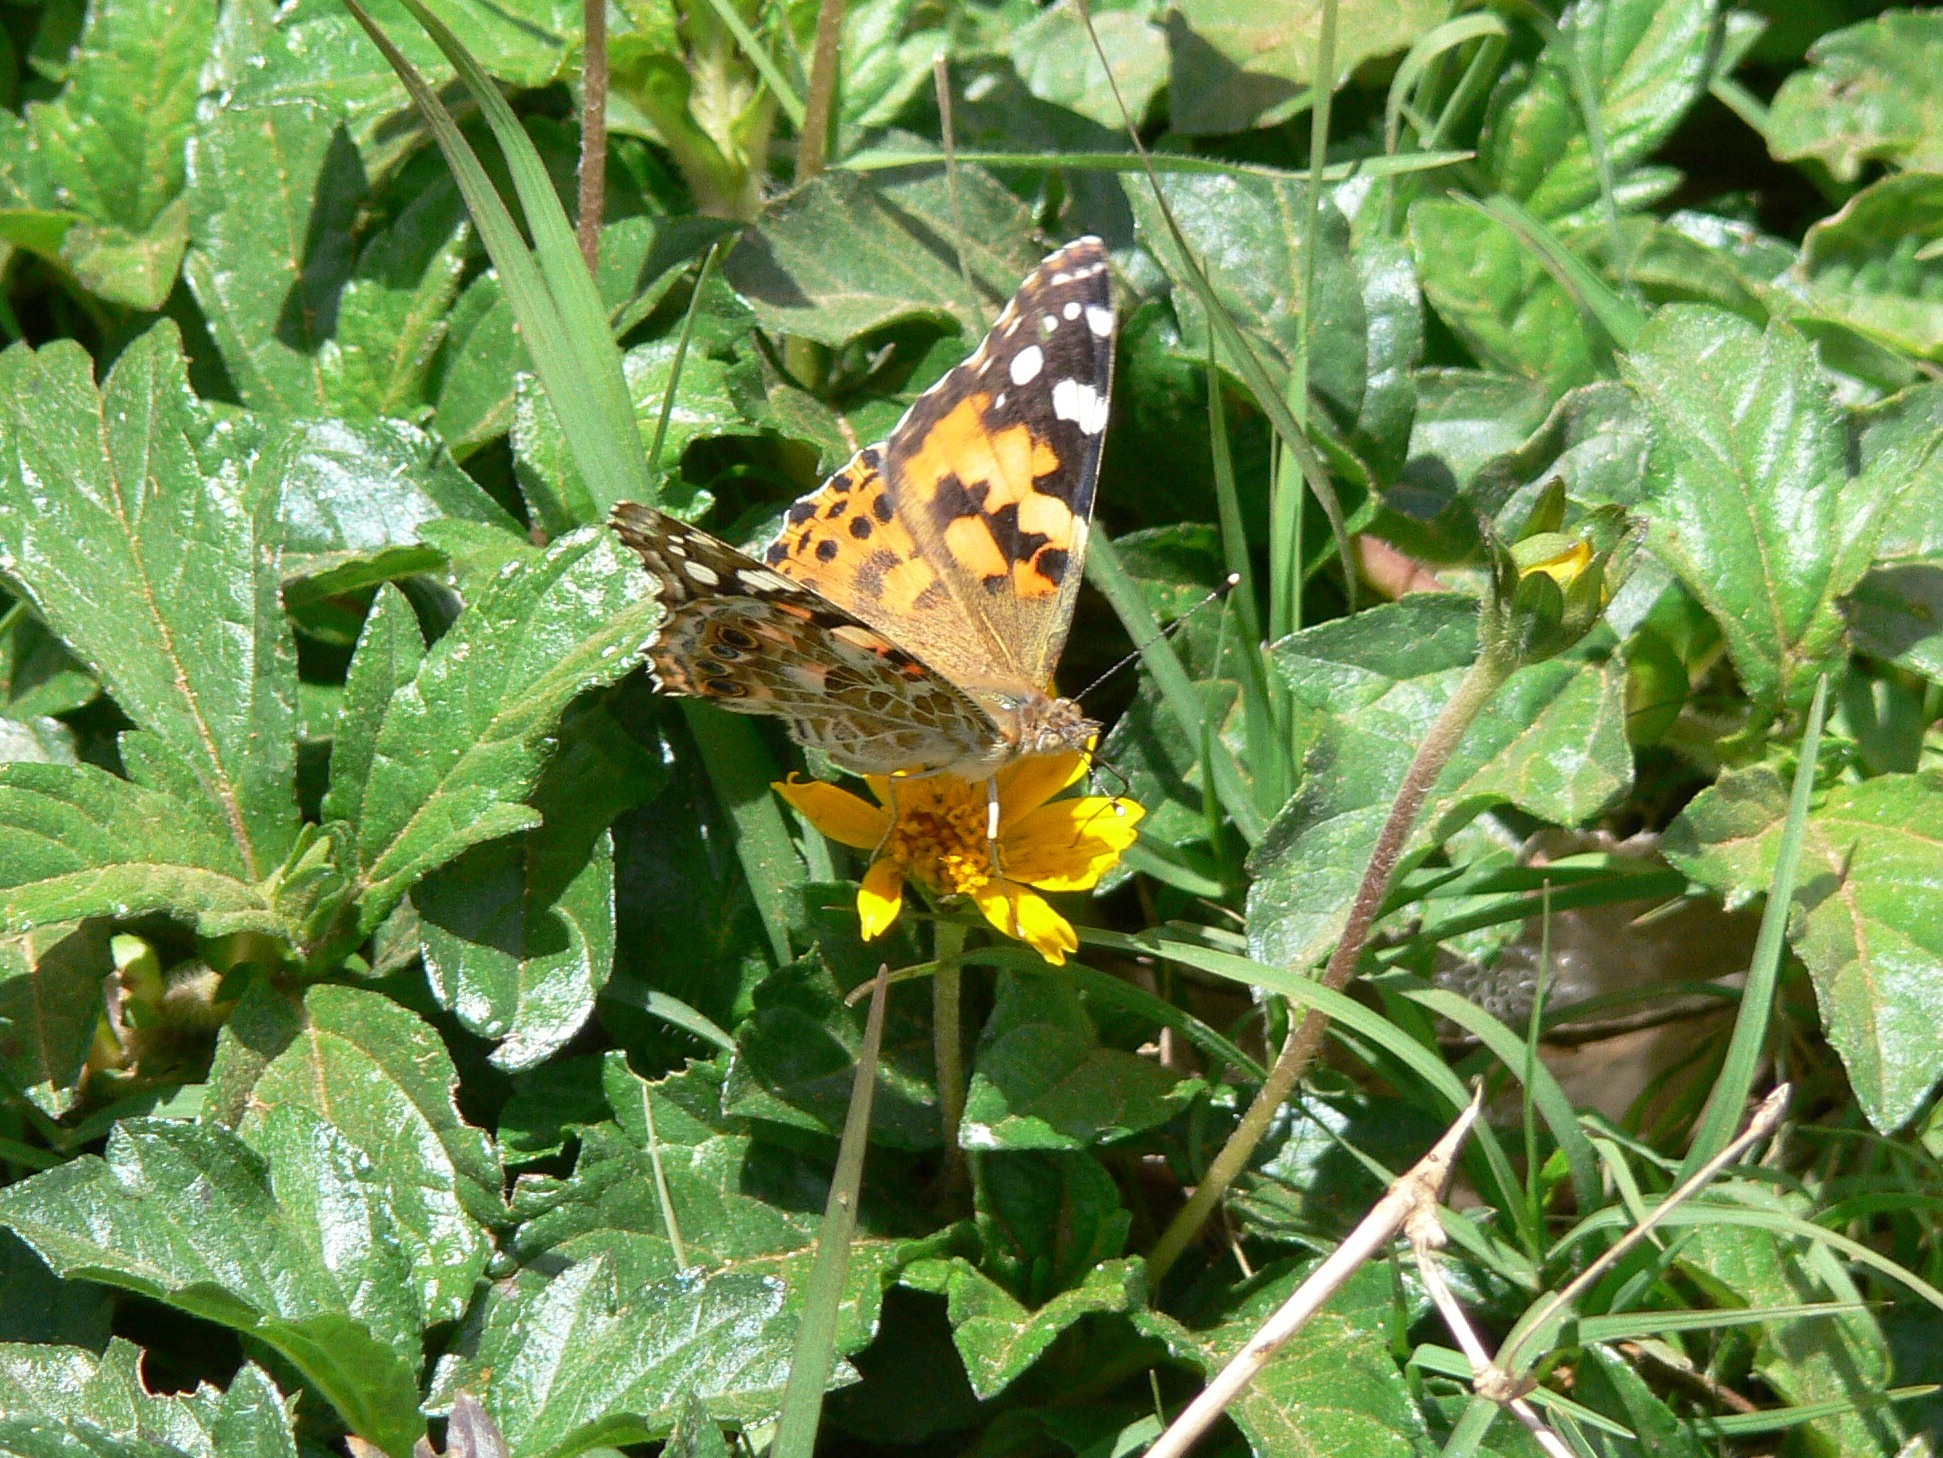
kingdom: Animalia
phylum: Arthropoda
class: Insecta
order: Lepidoptera
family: Nymphalidae
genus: Vanessa
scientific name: Vanessa cardui
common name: Painted lady
